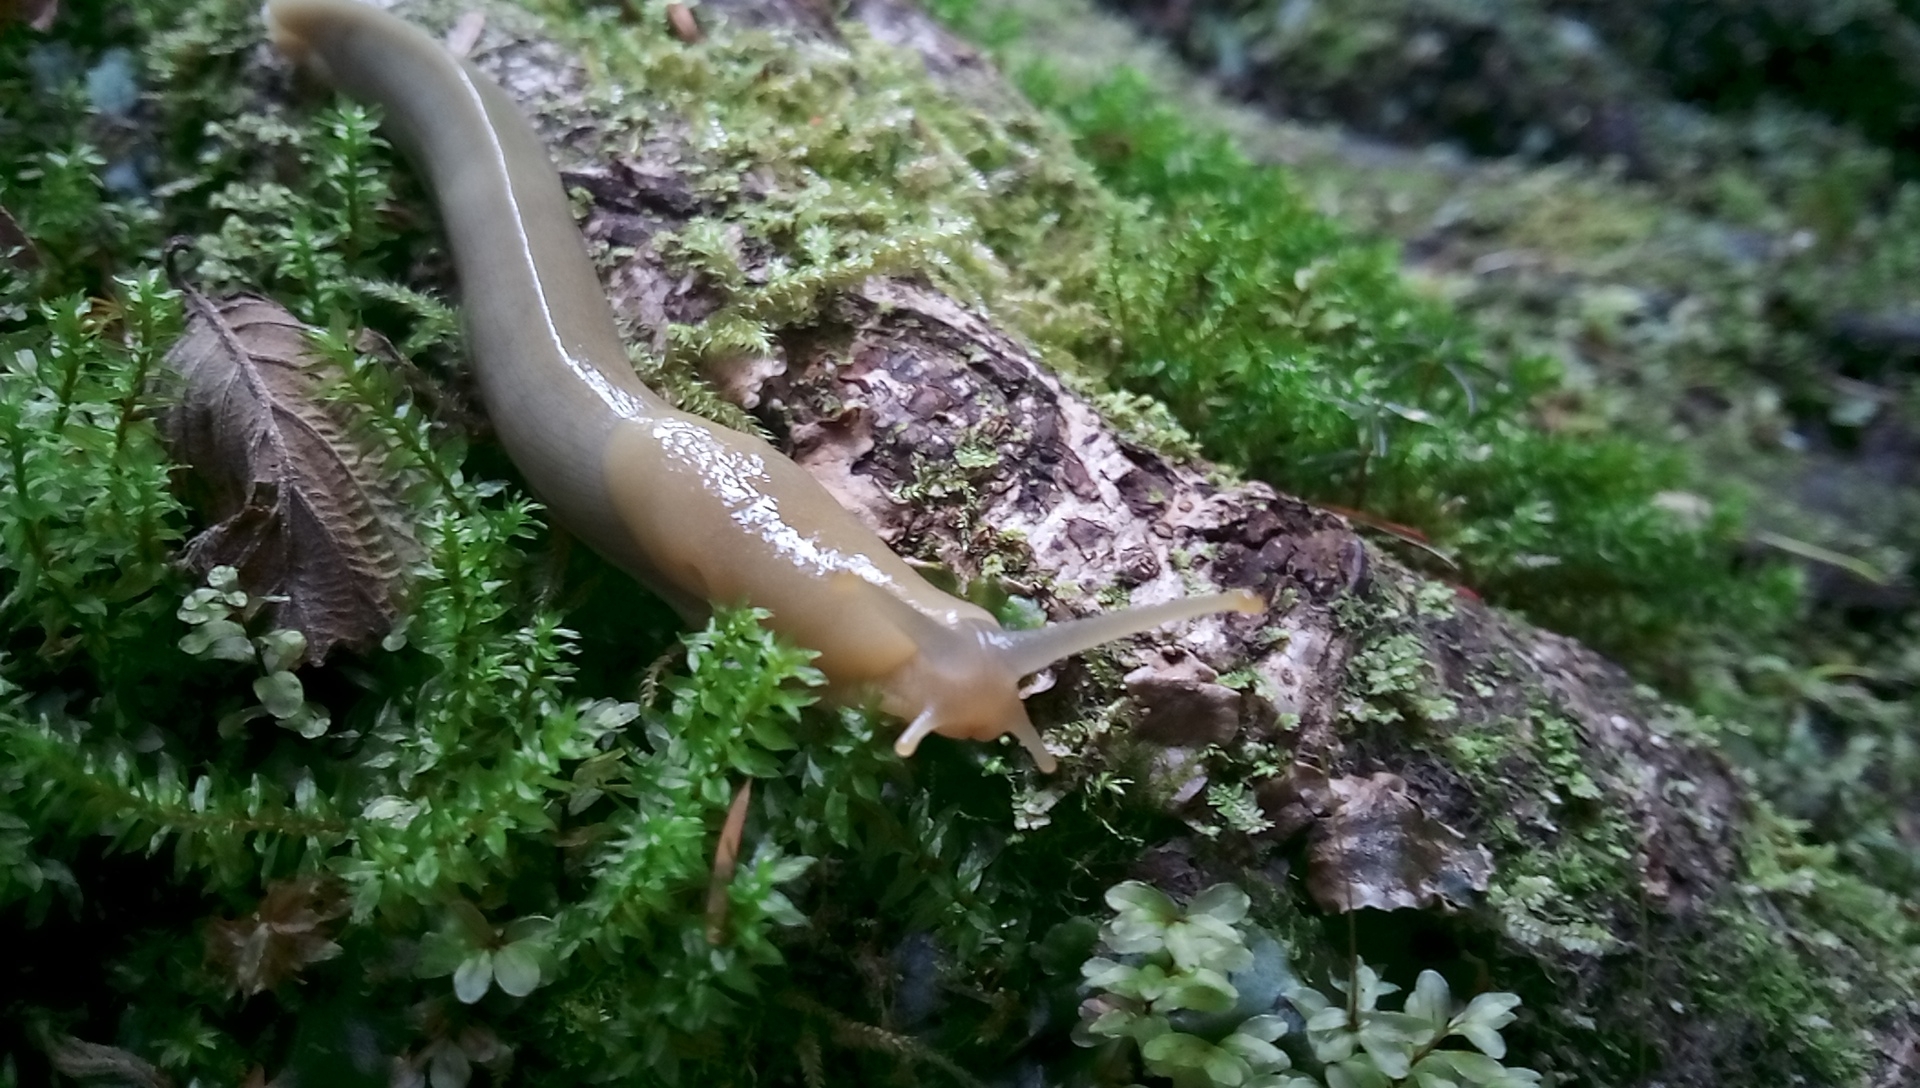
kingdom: Animalia
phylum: Mollusca
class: Gastropoda
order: Stylommatophora
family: Ariolimacidae
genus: Ariolimax
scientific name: Ariolimax columbianus
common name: Pacific banana slug
